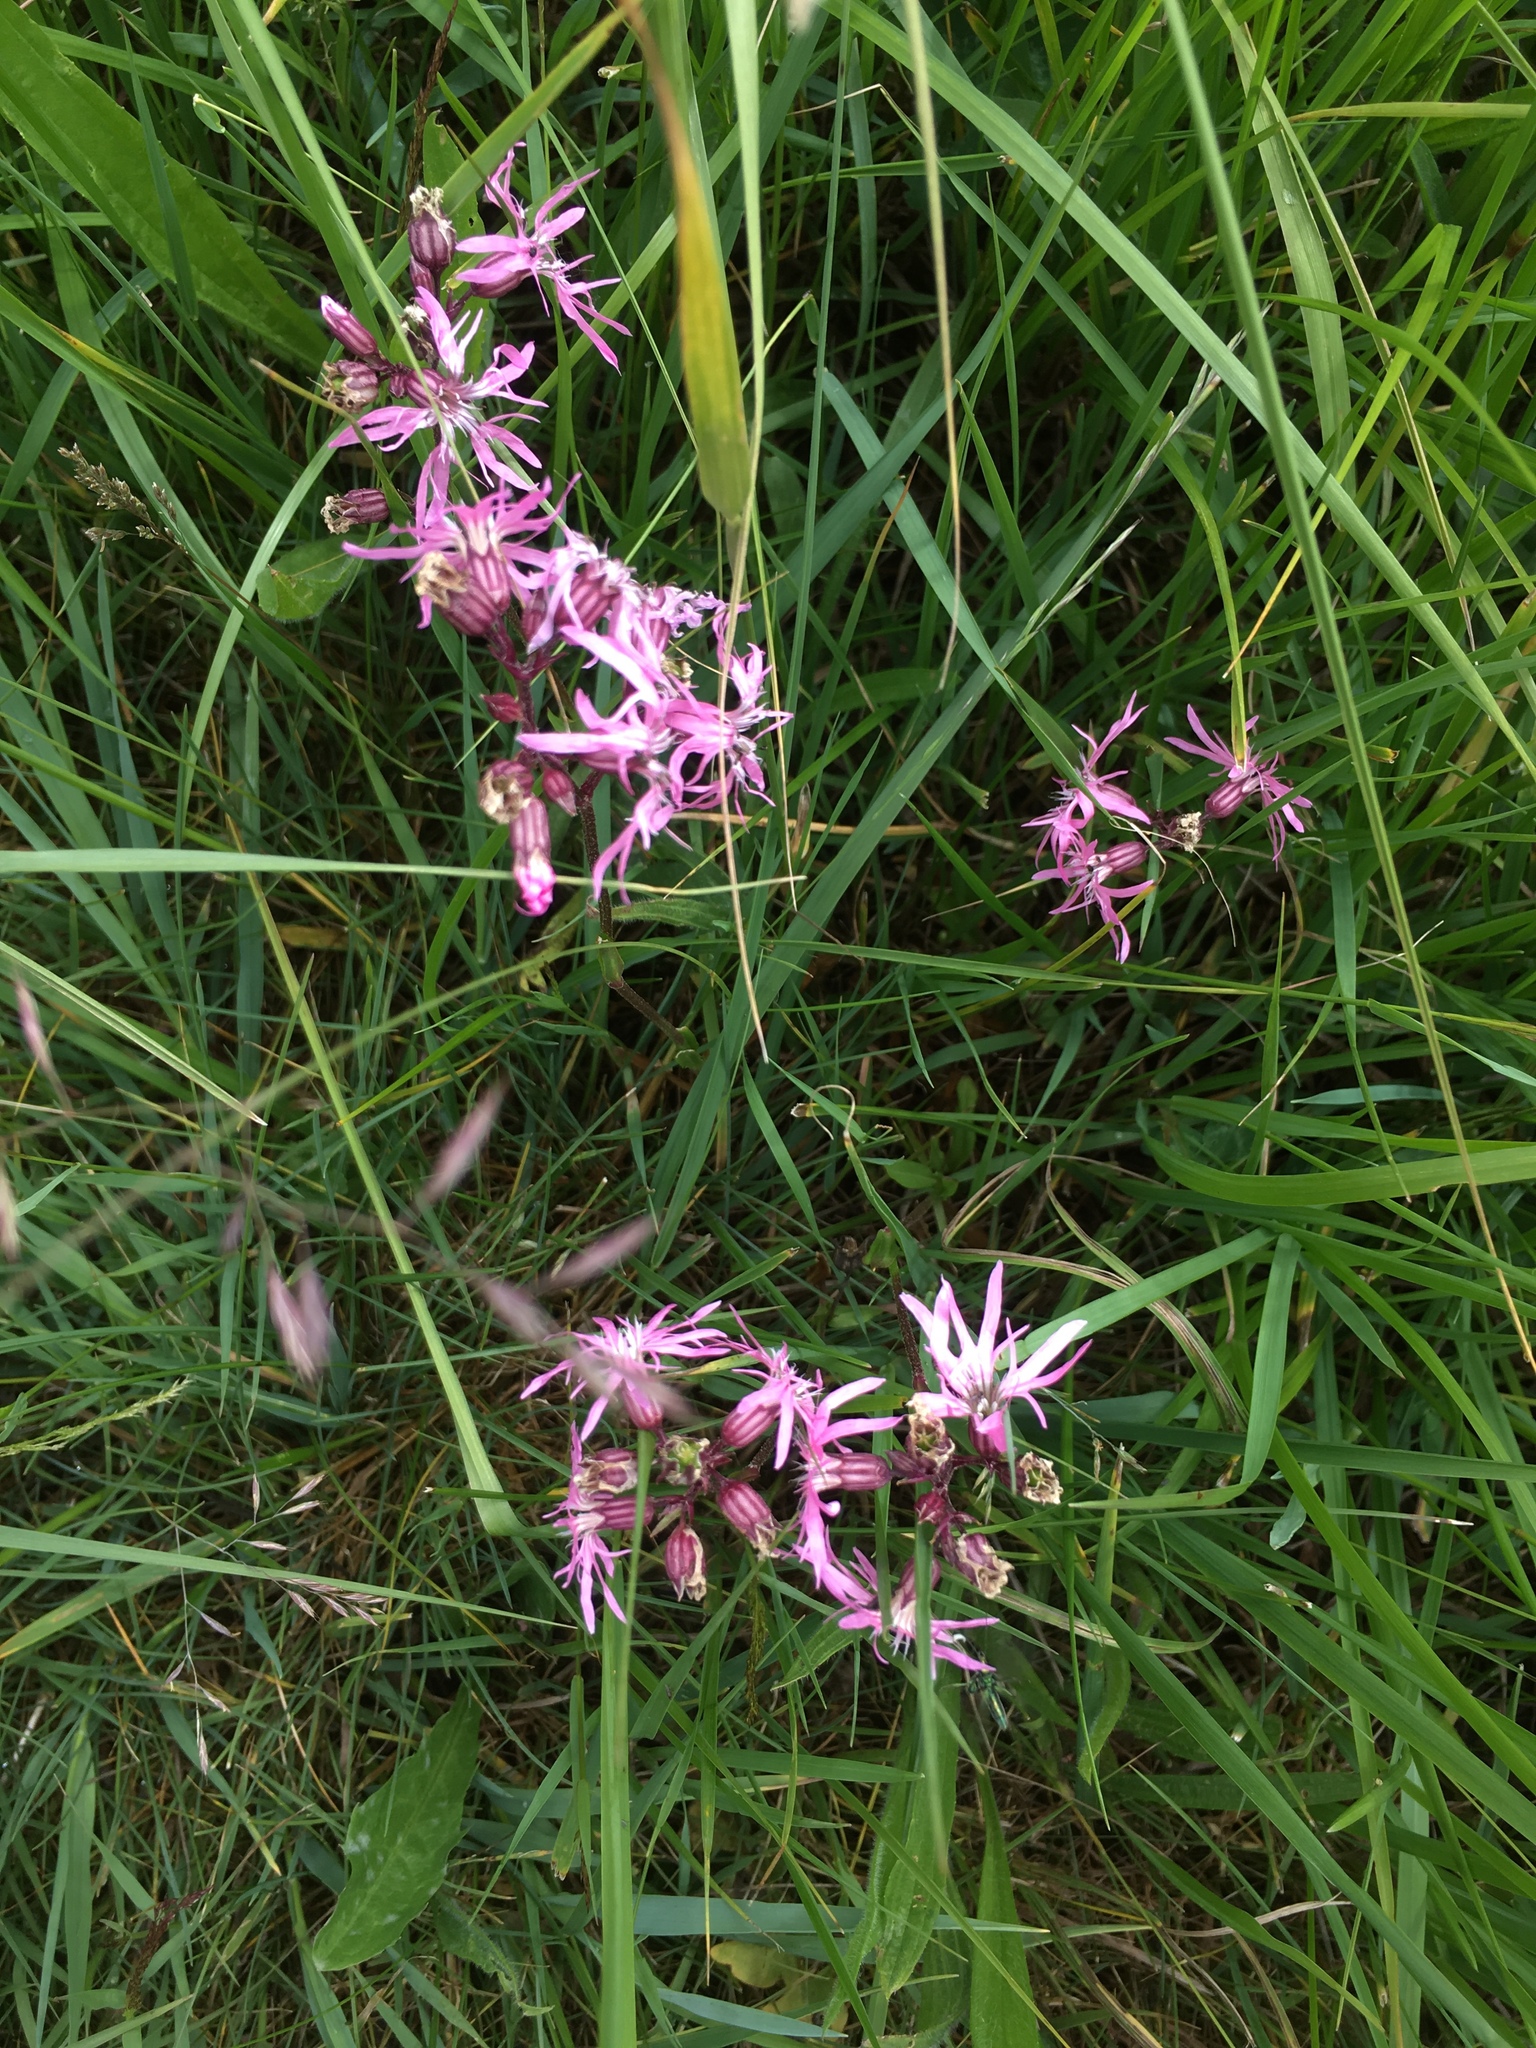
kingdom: Plantae
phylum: Tracheophyta
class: Magnoliopsida
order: Caryophyllales
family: Caryophyllaceae
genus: Silene
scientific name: Silene flos-cuculi
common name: Ragged-robin
